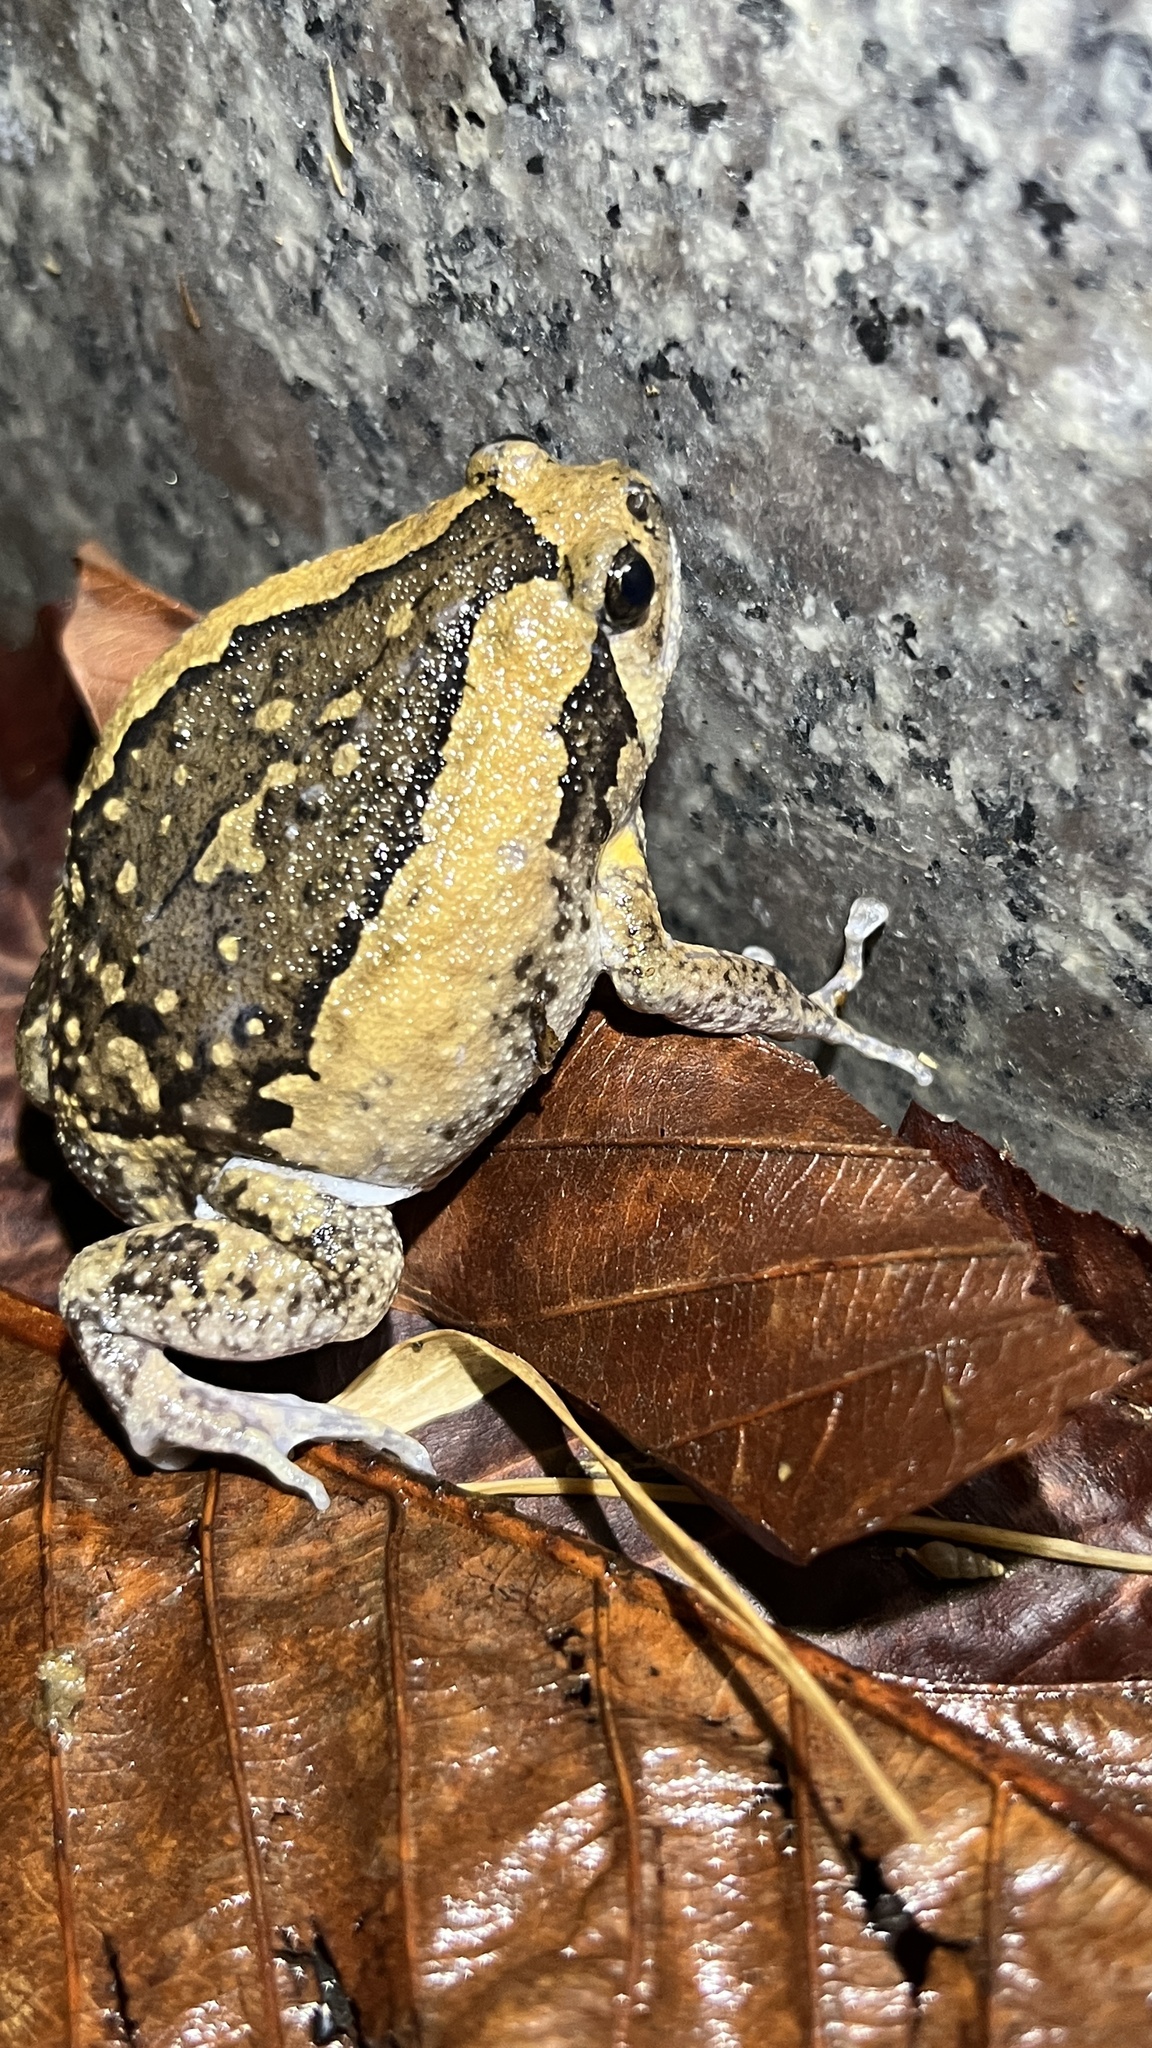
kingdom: Animalia
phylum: Chordata
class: Amphibia
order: Anura
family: Microhylidae
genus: Kaloula
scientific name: Kaloula pulchra
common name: Common,banded bullfrog
